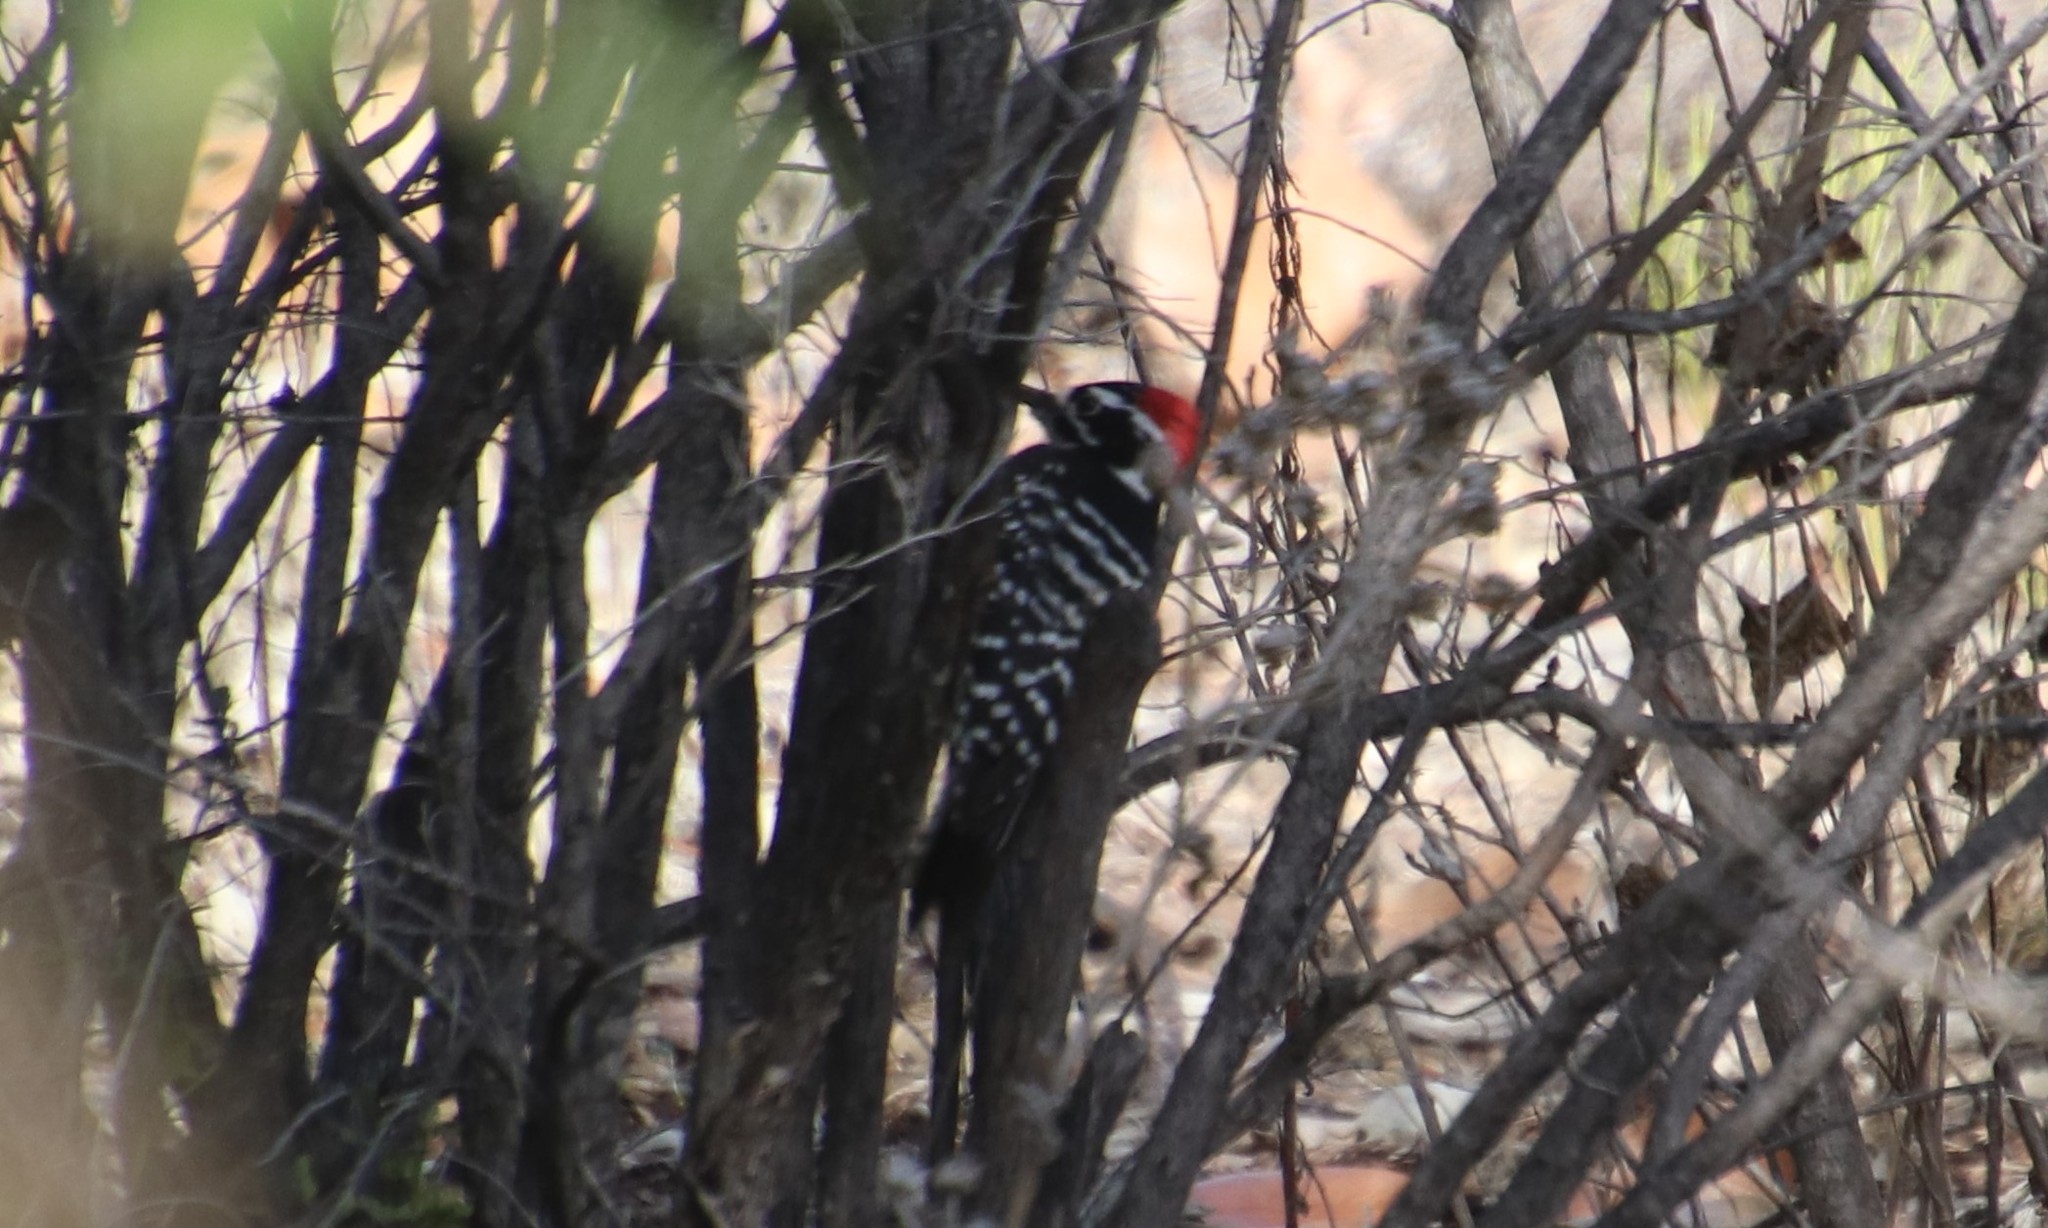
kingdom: Animalia
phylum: Chordata
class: Aves
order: Piciformes
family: Picidae
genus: Dryobates
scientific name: Dryobates nuttallii
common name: Nuttall's woodpecker
